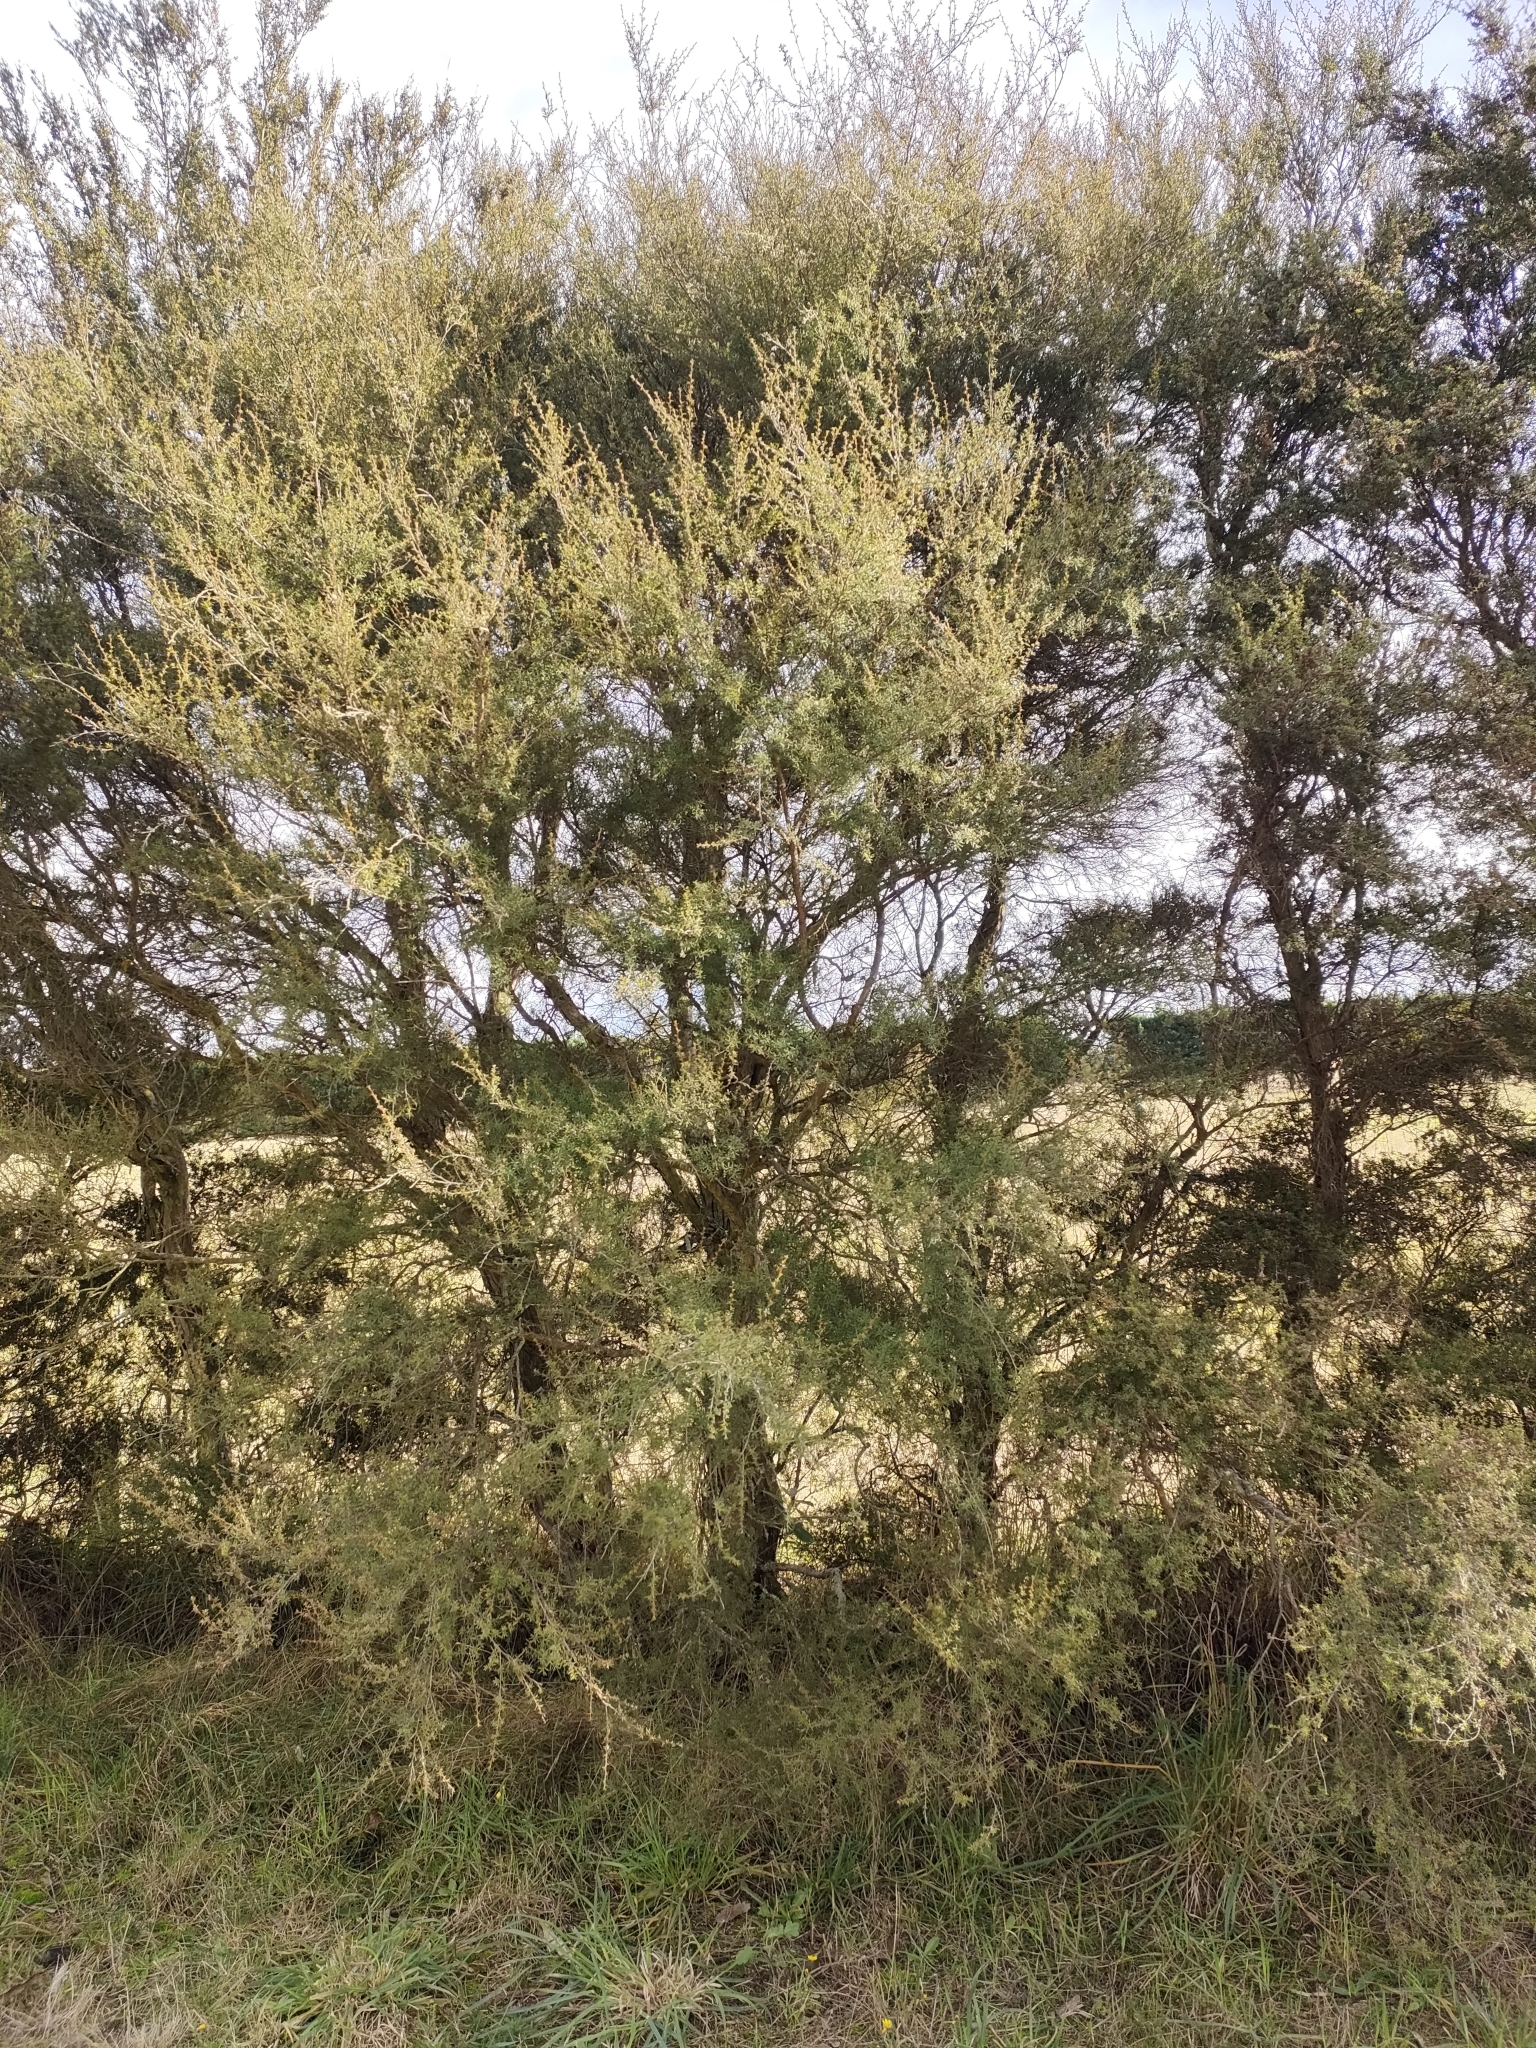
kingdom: Plantae
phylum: Tracheophyta
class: Magnoliopsida
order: Apiales
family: Pittosporaceae
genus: Pittosporum
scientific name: Pittosporum ralphii
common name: Ralph's desertwillow
